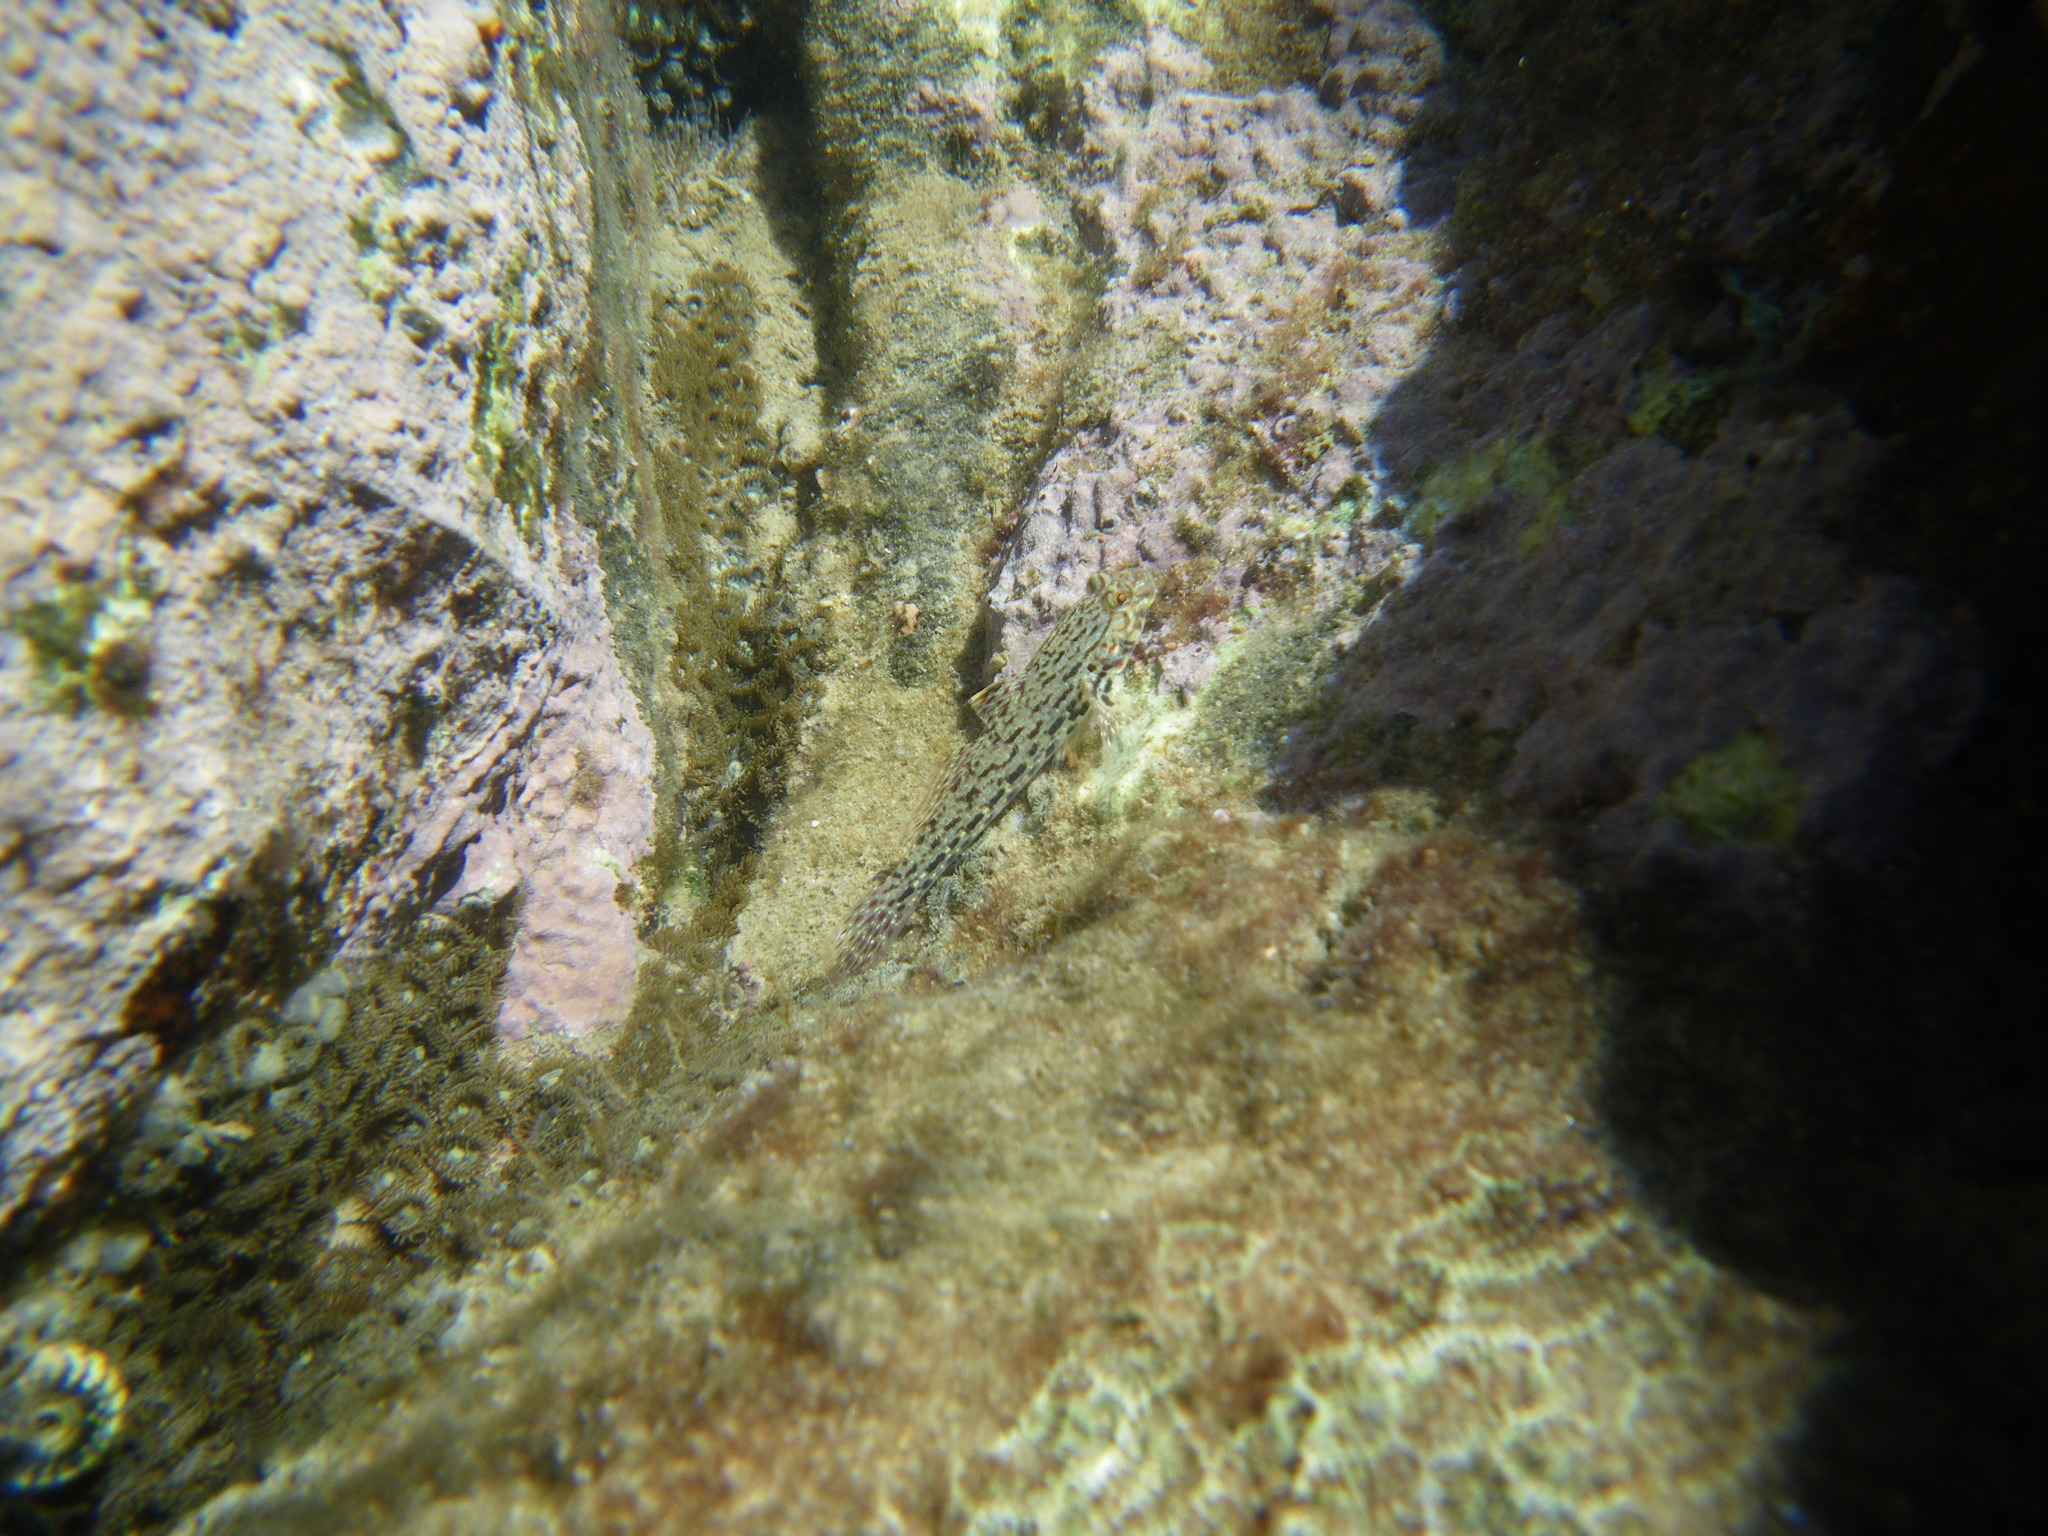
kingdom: Animalia
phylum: Chordata
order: Perciformes
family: Gobiidae
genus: Istigobius
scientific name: Istigobius ornatus
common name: Ornate goby
